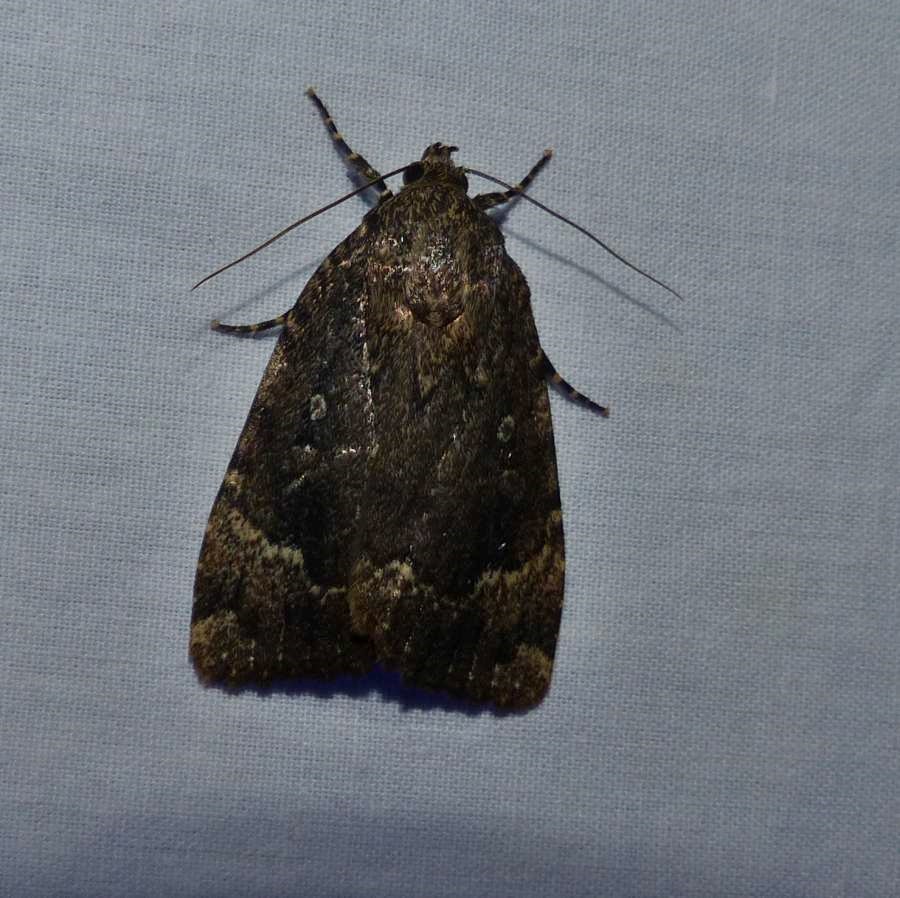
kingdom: Animalia
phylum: Arthropoda
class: Insecta
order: Lepidoptera
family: Noctuidae
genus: Amphipyra
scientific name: Amphipyra pyramidoides
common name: American copper underwing
